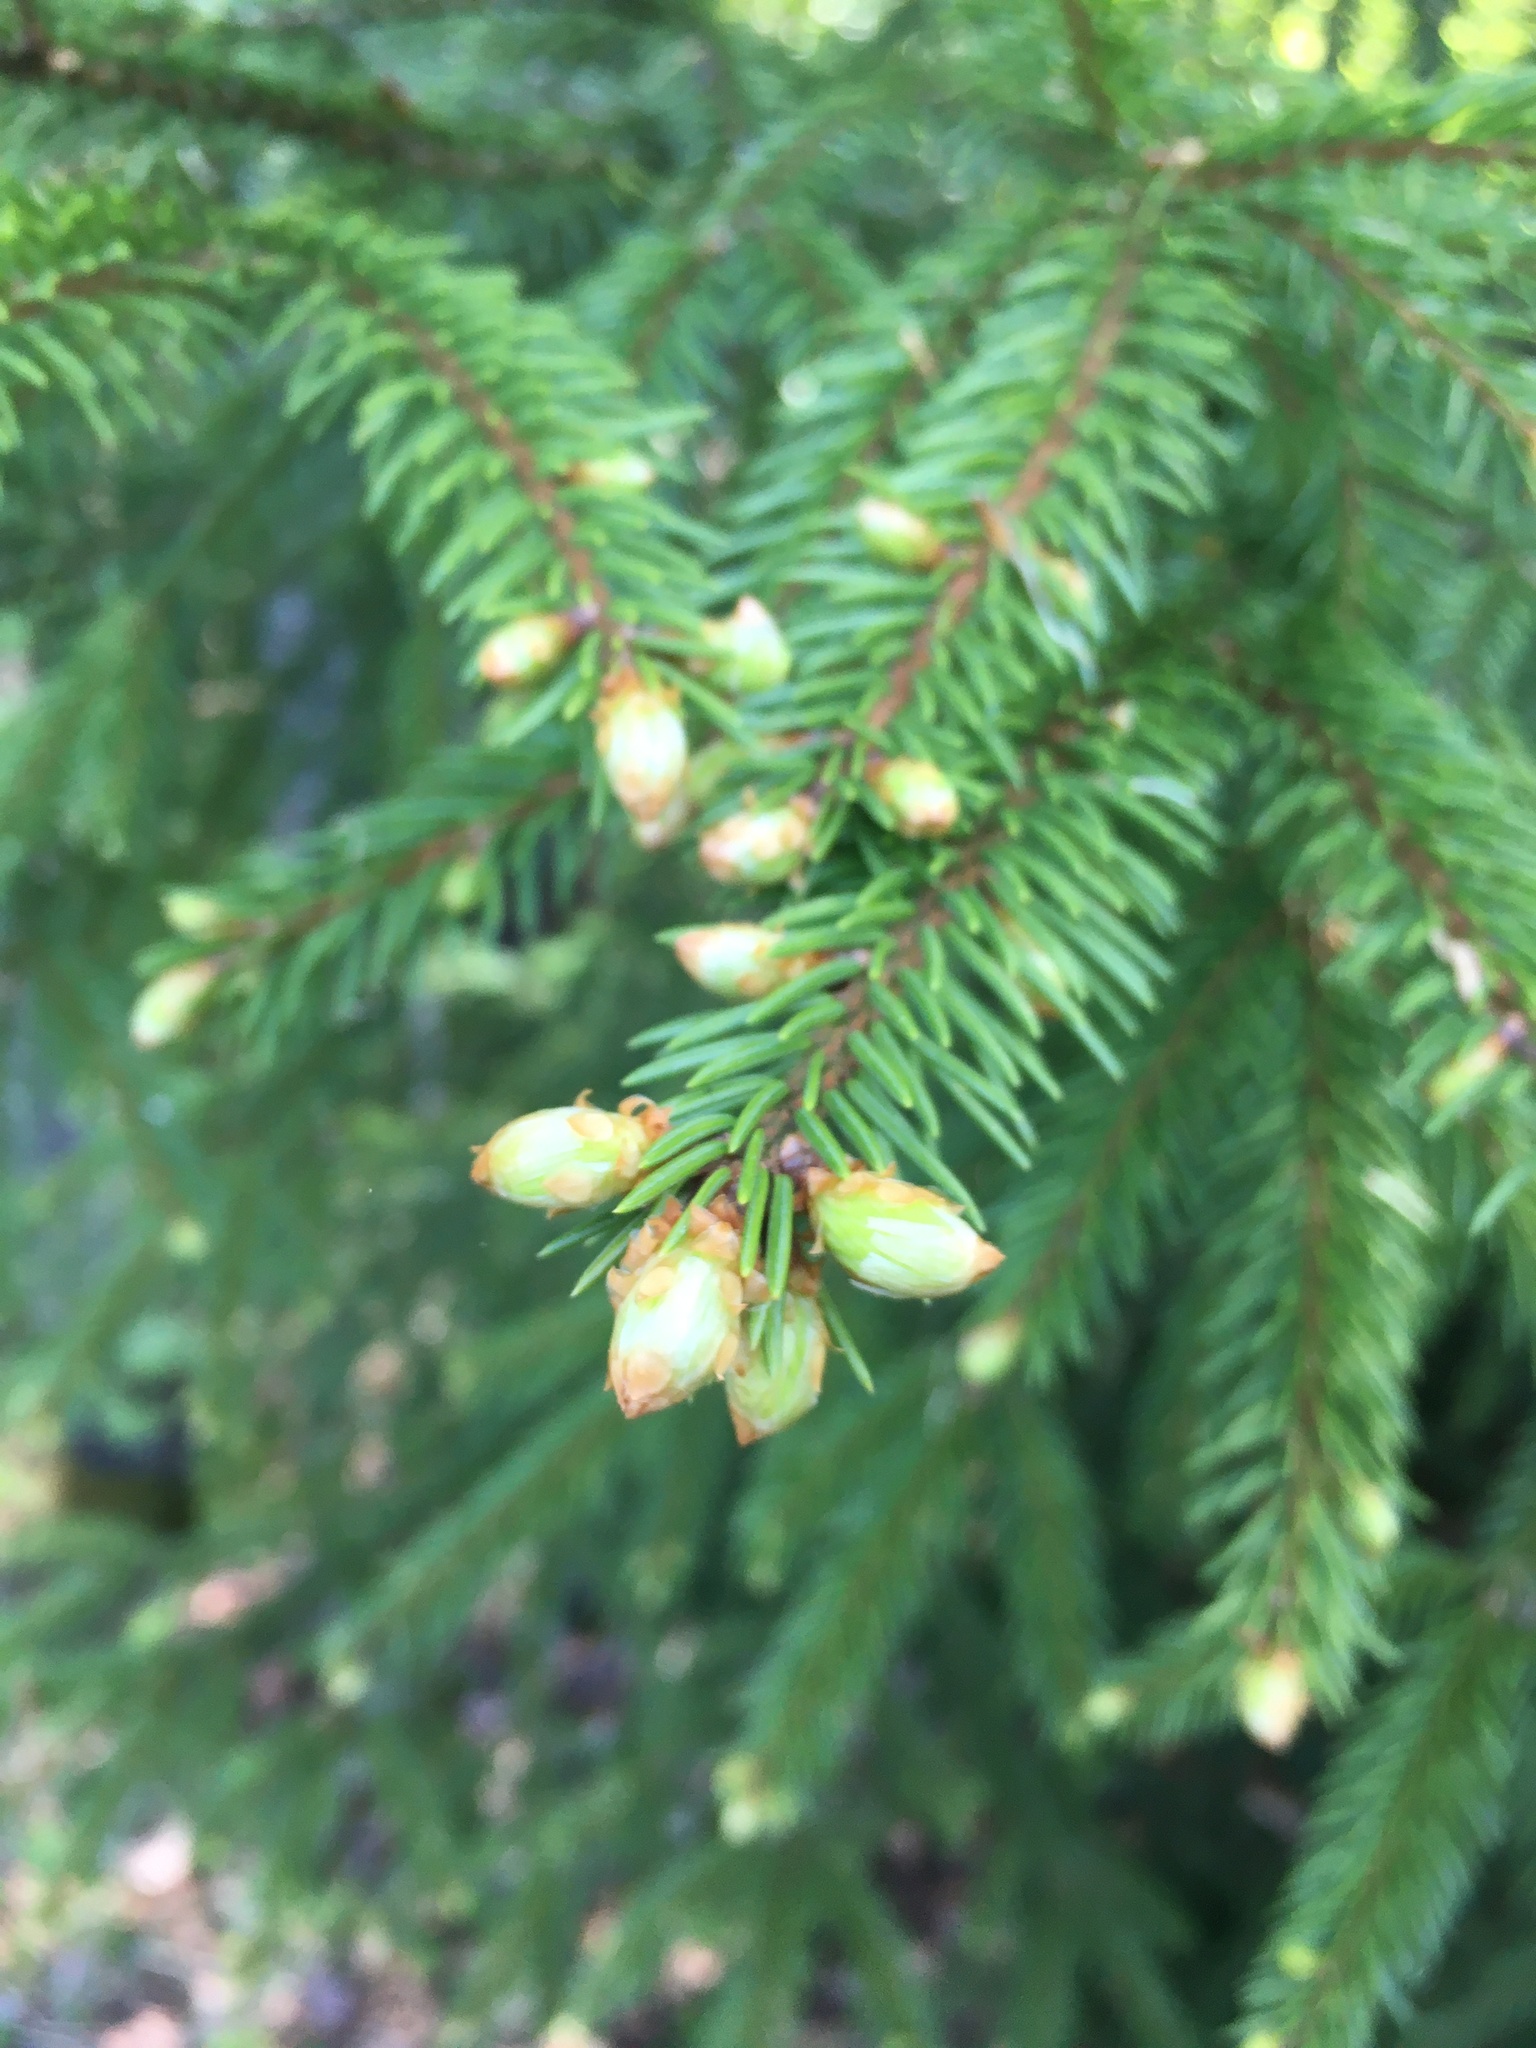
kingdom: Plantae
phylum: Tracheophyta
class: Pinopsida
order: Pinales
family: Pinaceae
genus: Picea
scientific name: Picea abies
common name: Norway spruce
